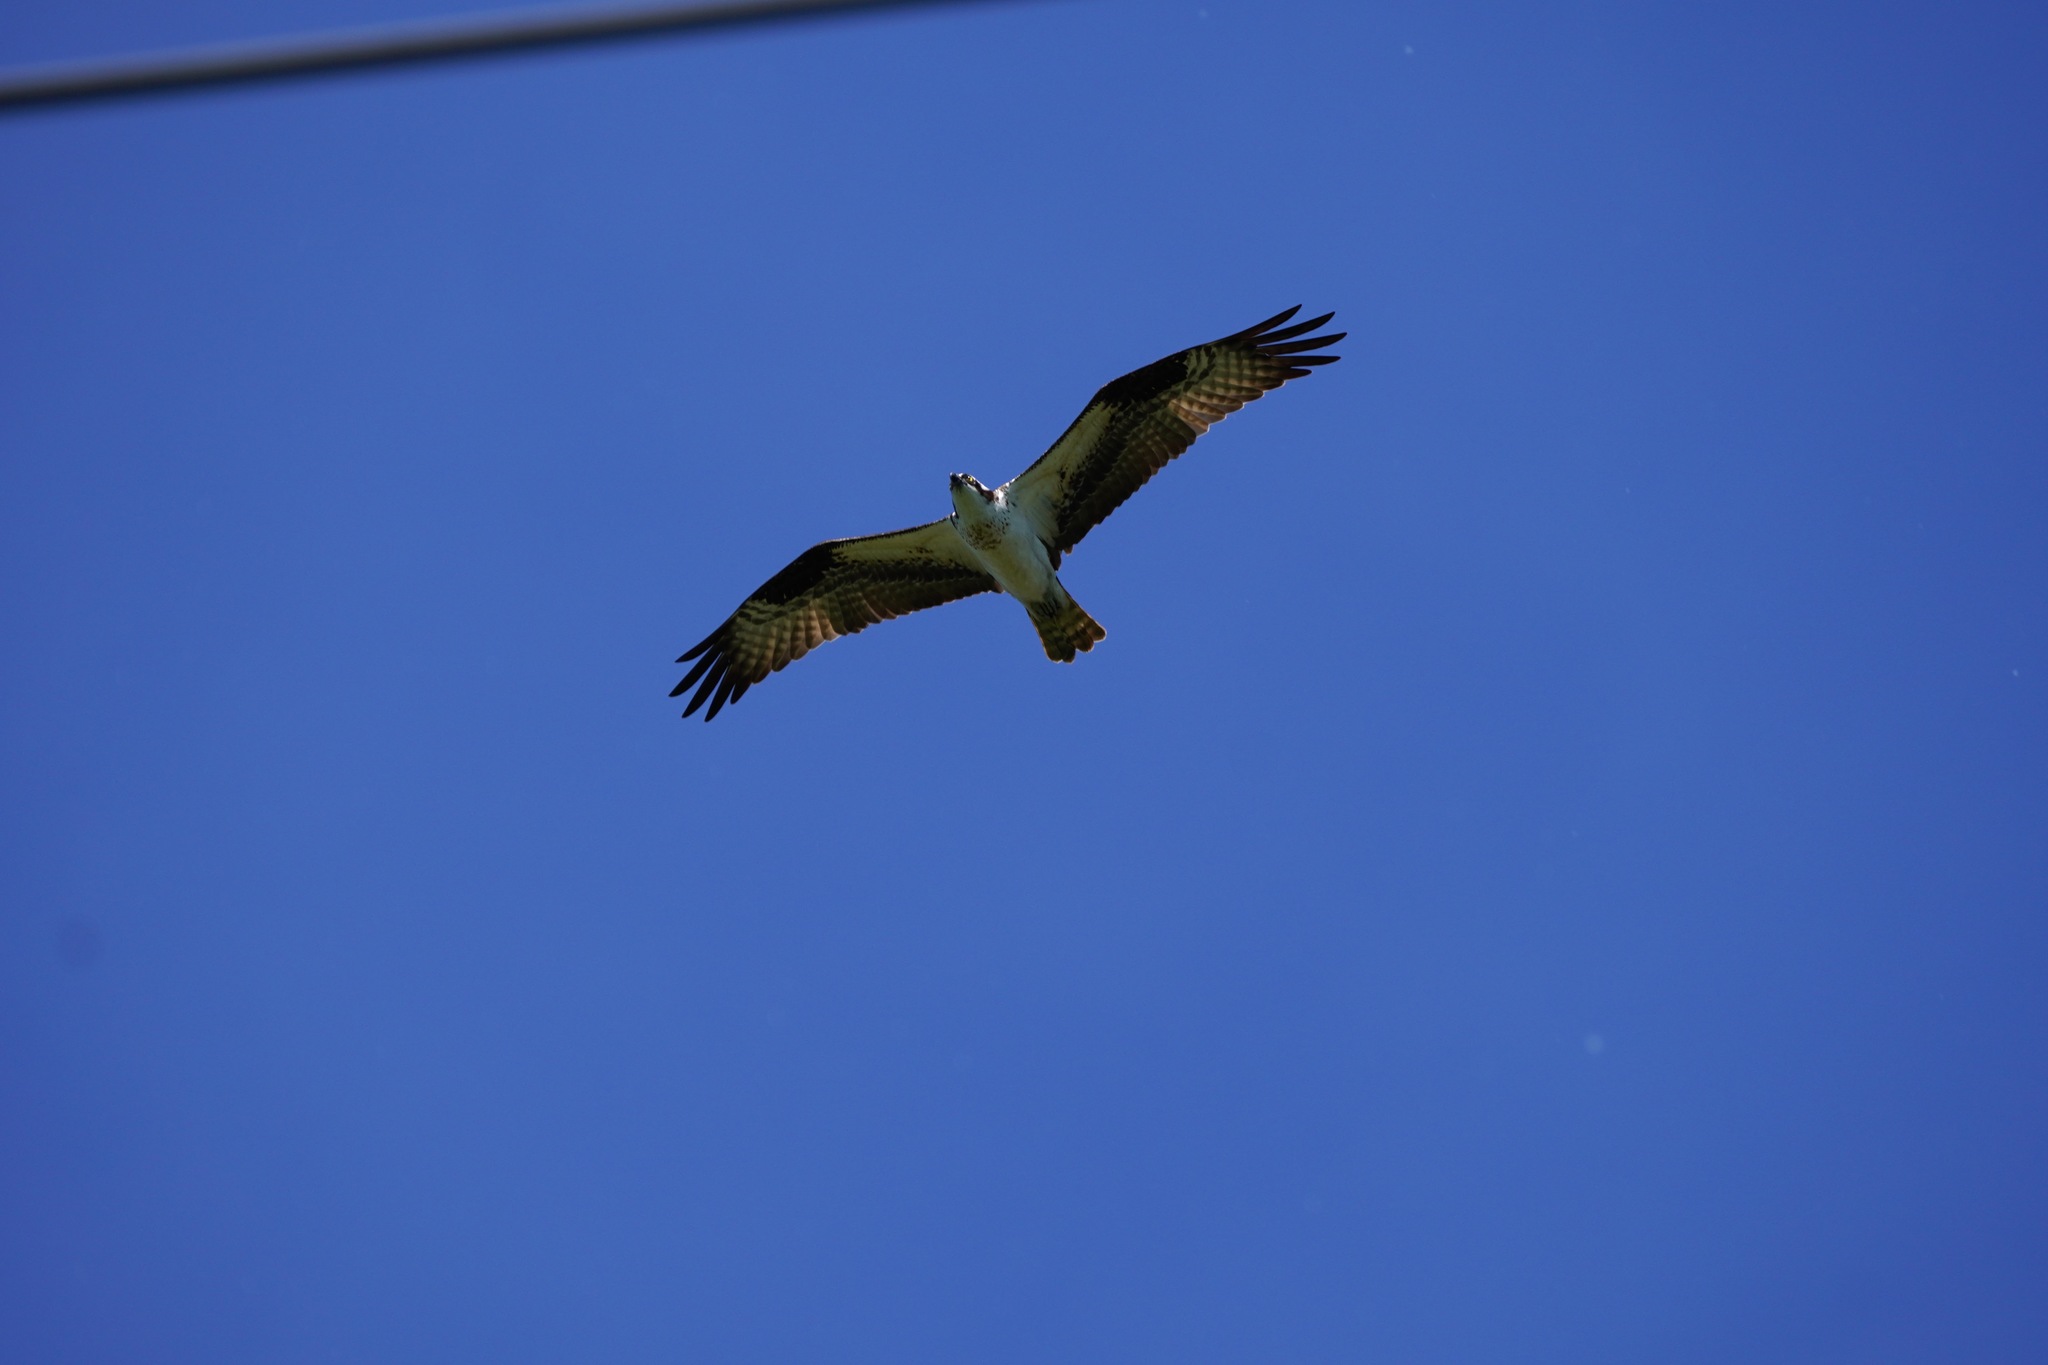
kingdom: Animalia
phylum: Chordata
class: Aves
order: Accipitriformes
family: Pandionidae
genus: Pandion
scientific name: Pandion haliaetus
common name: Osprey
